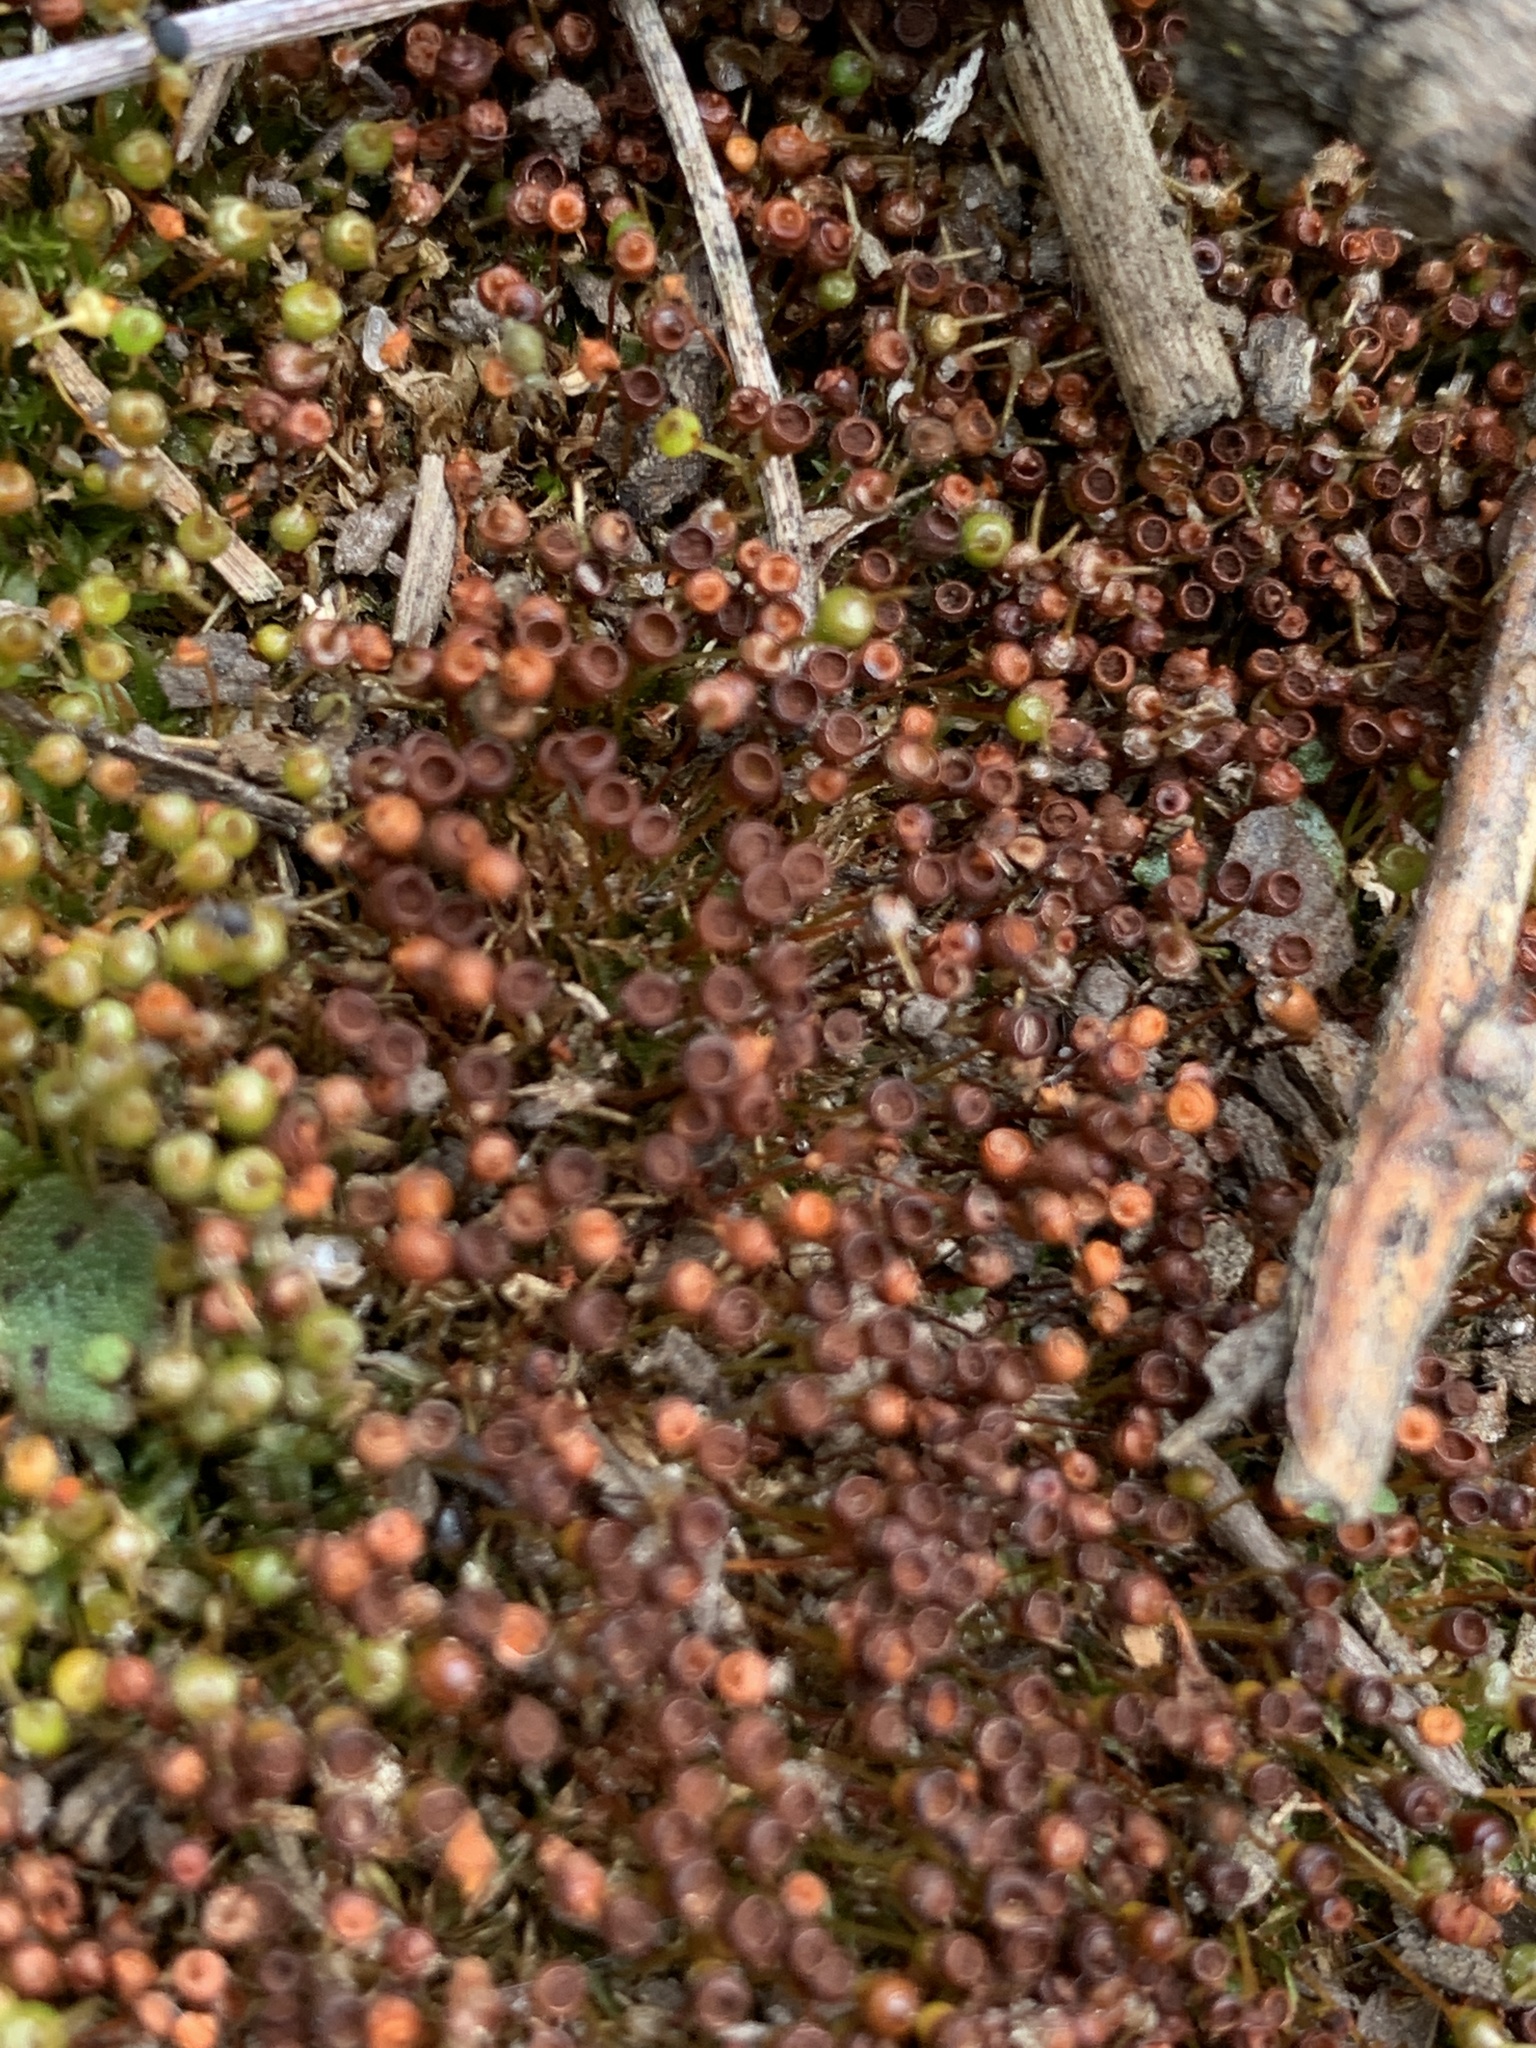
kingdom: Plantae
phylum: Bryophyta
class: Bryopsida
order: Funariales
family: Funariaceae
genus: Physcomitrium
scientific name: Physcomitrium pyriforme
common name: Common bladder-moss
